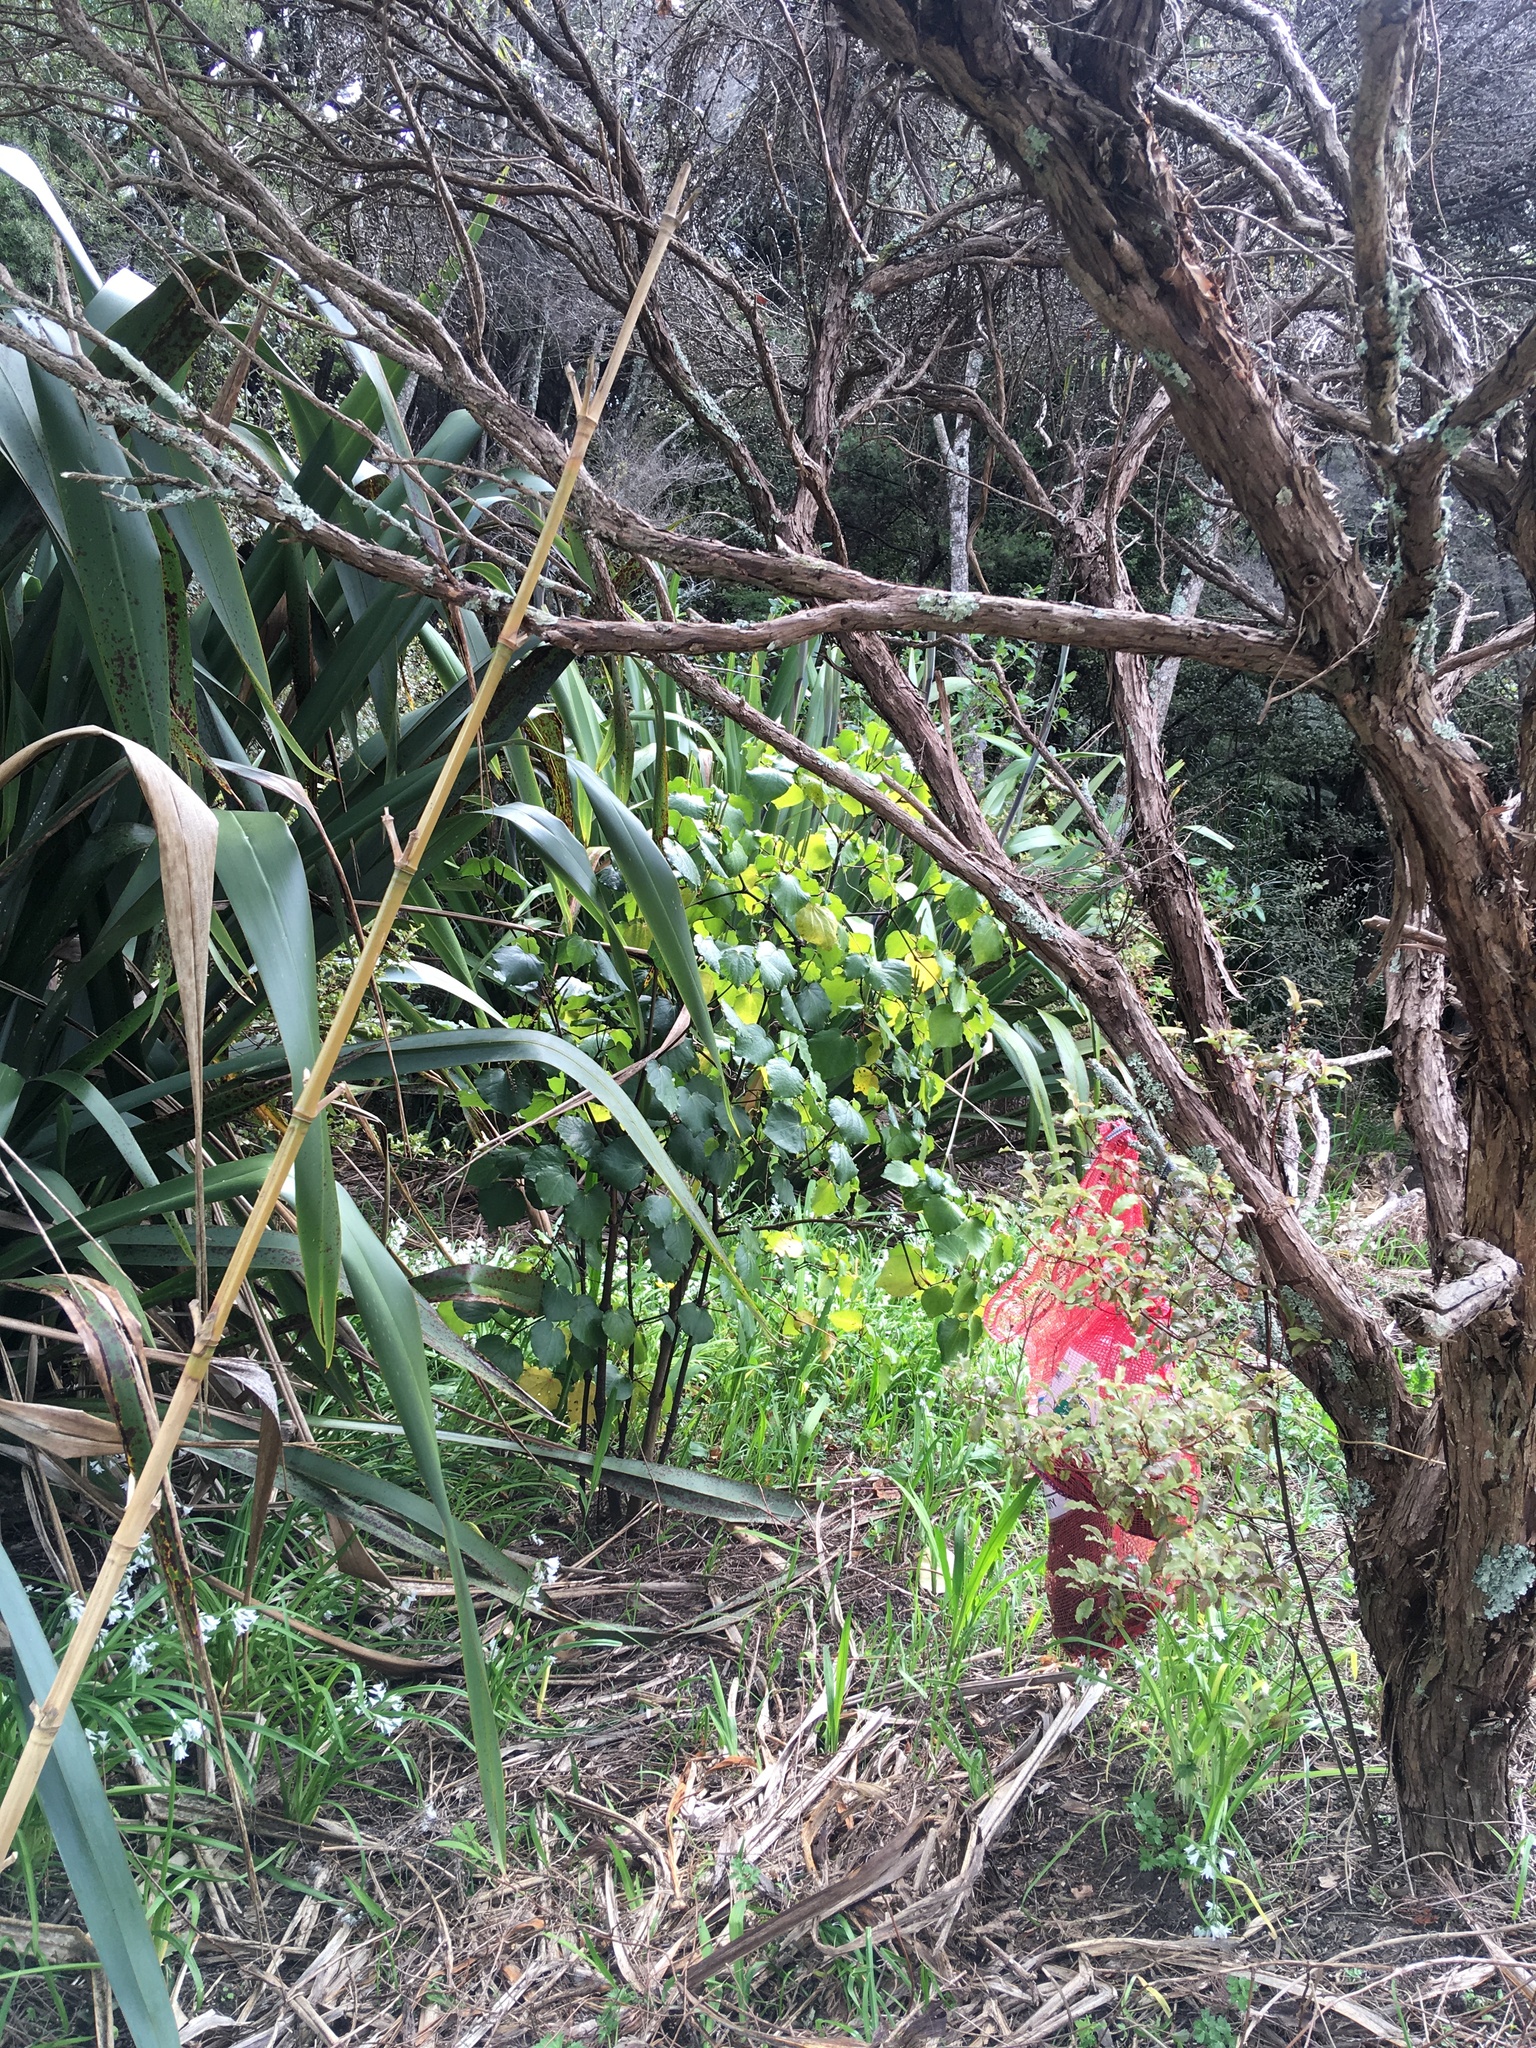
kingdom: Plantae
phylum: Tracheophyta
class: Magnoliopsida
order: Piperales
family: Piperaceae
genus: Macropiper
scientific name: Macropiper excelsum
